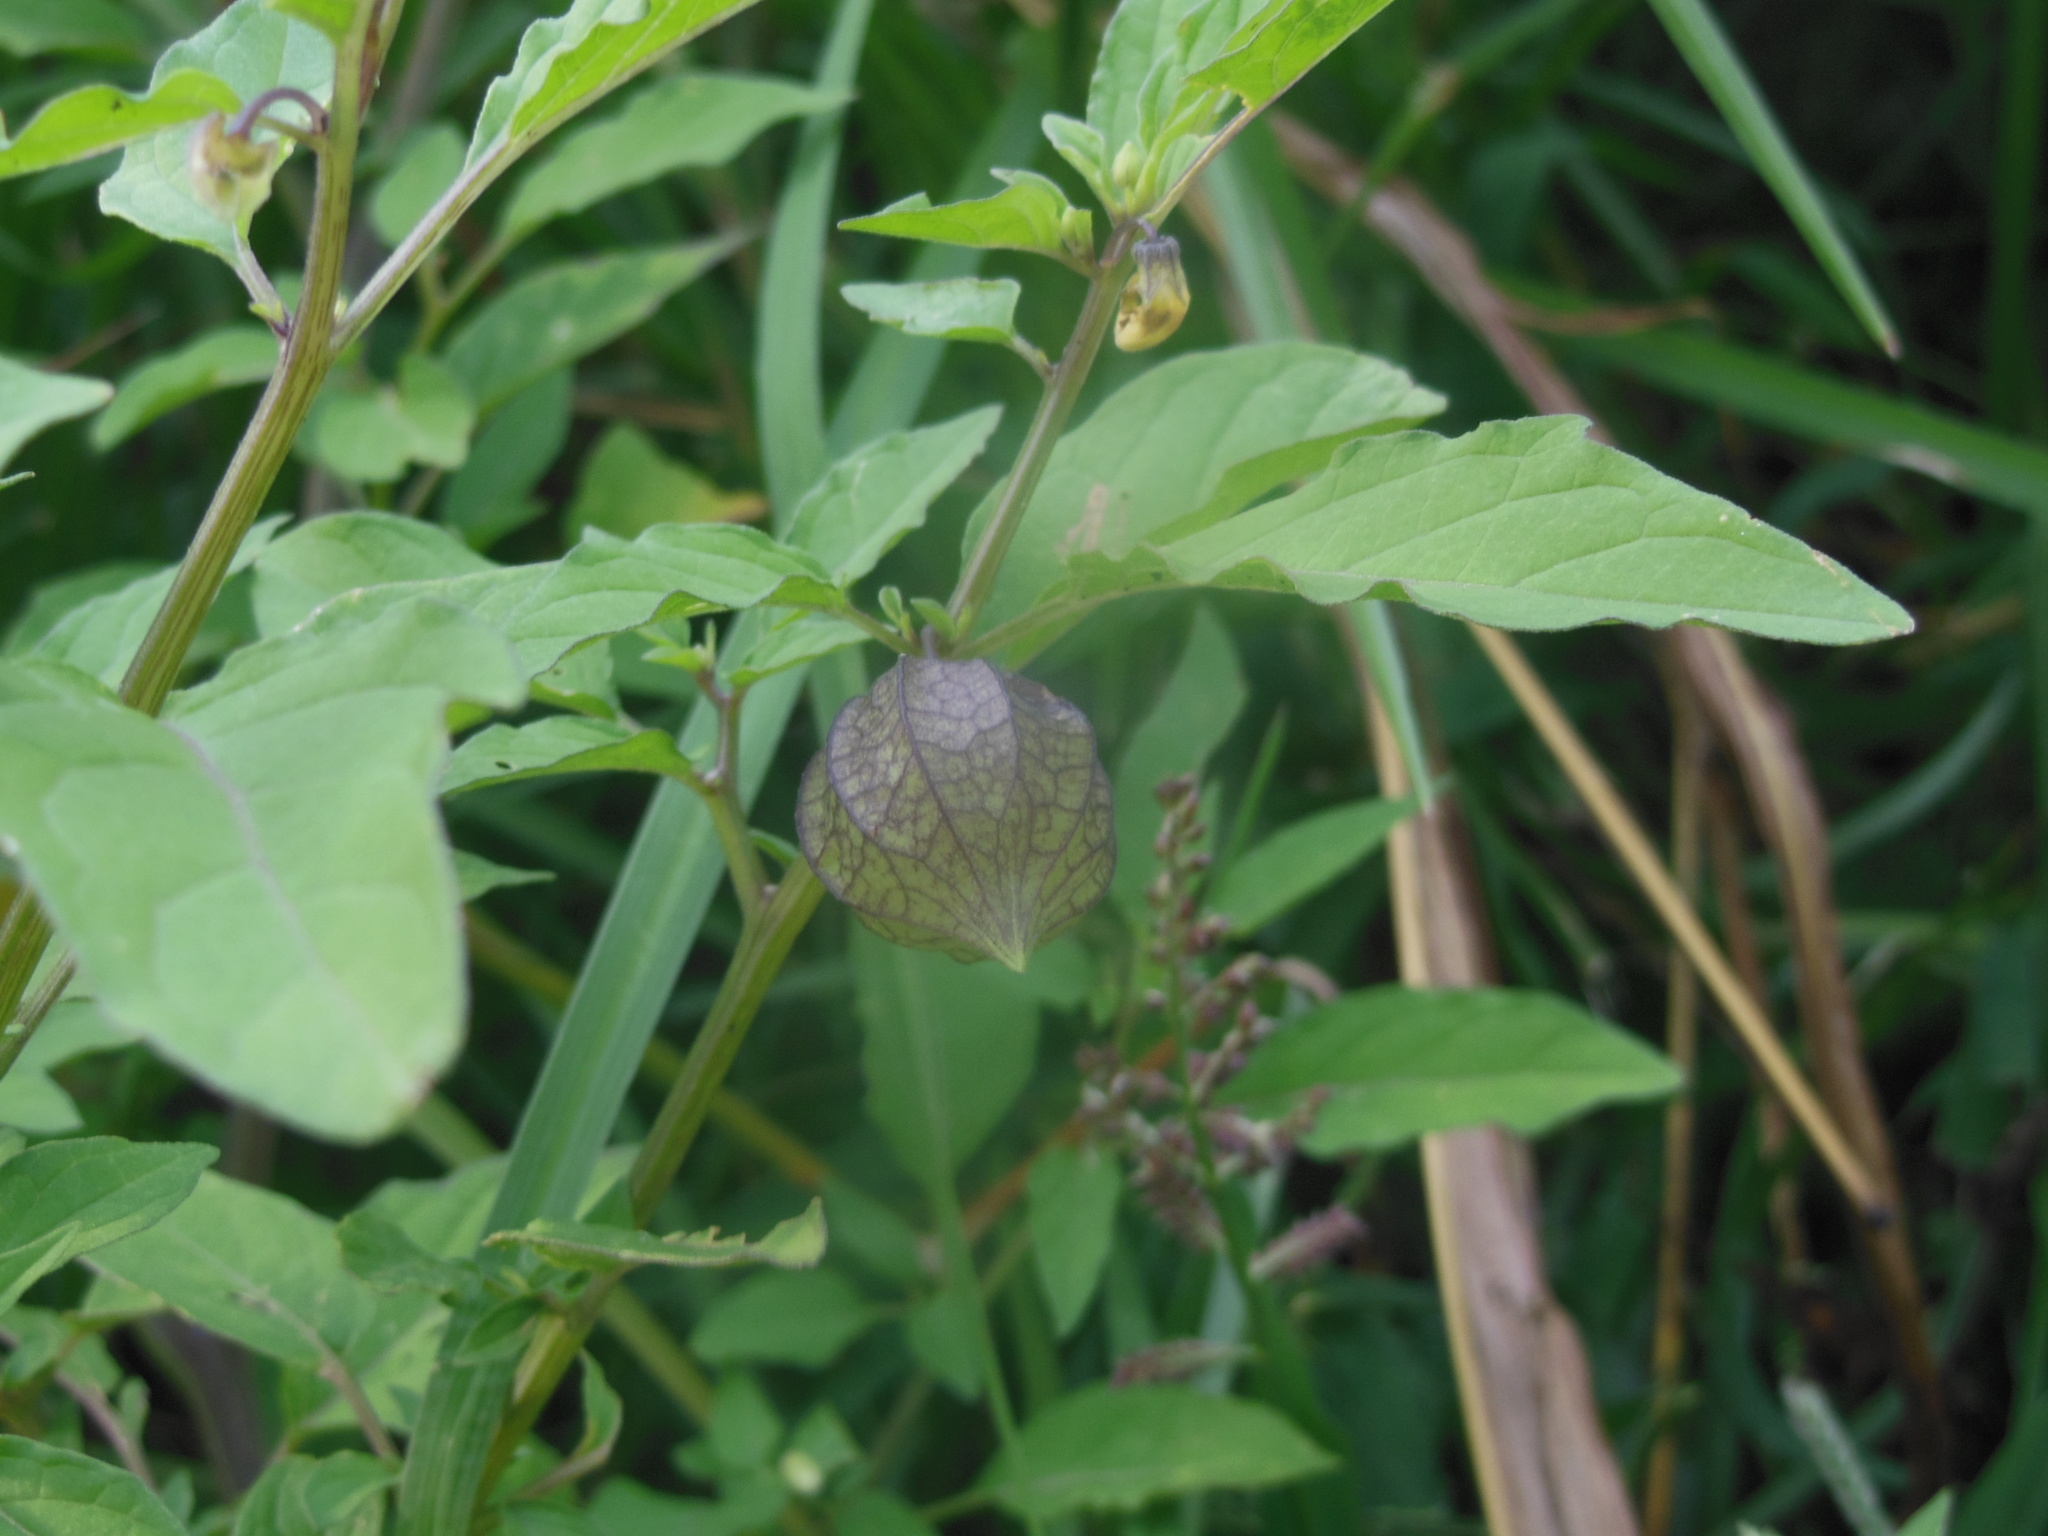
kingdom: Plantae
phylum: Tracheophyta
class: Magnoliopsida
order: Solanales
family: Solanaceae
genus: Physalis
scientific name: Physalis angulata
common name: Angular winter-cherry
